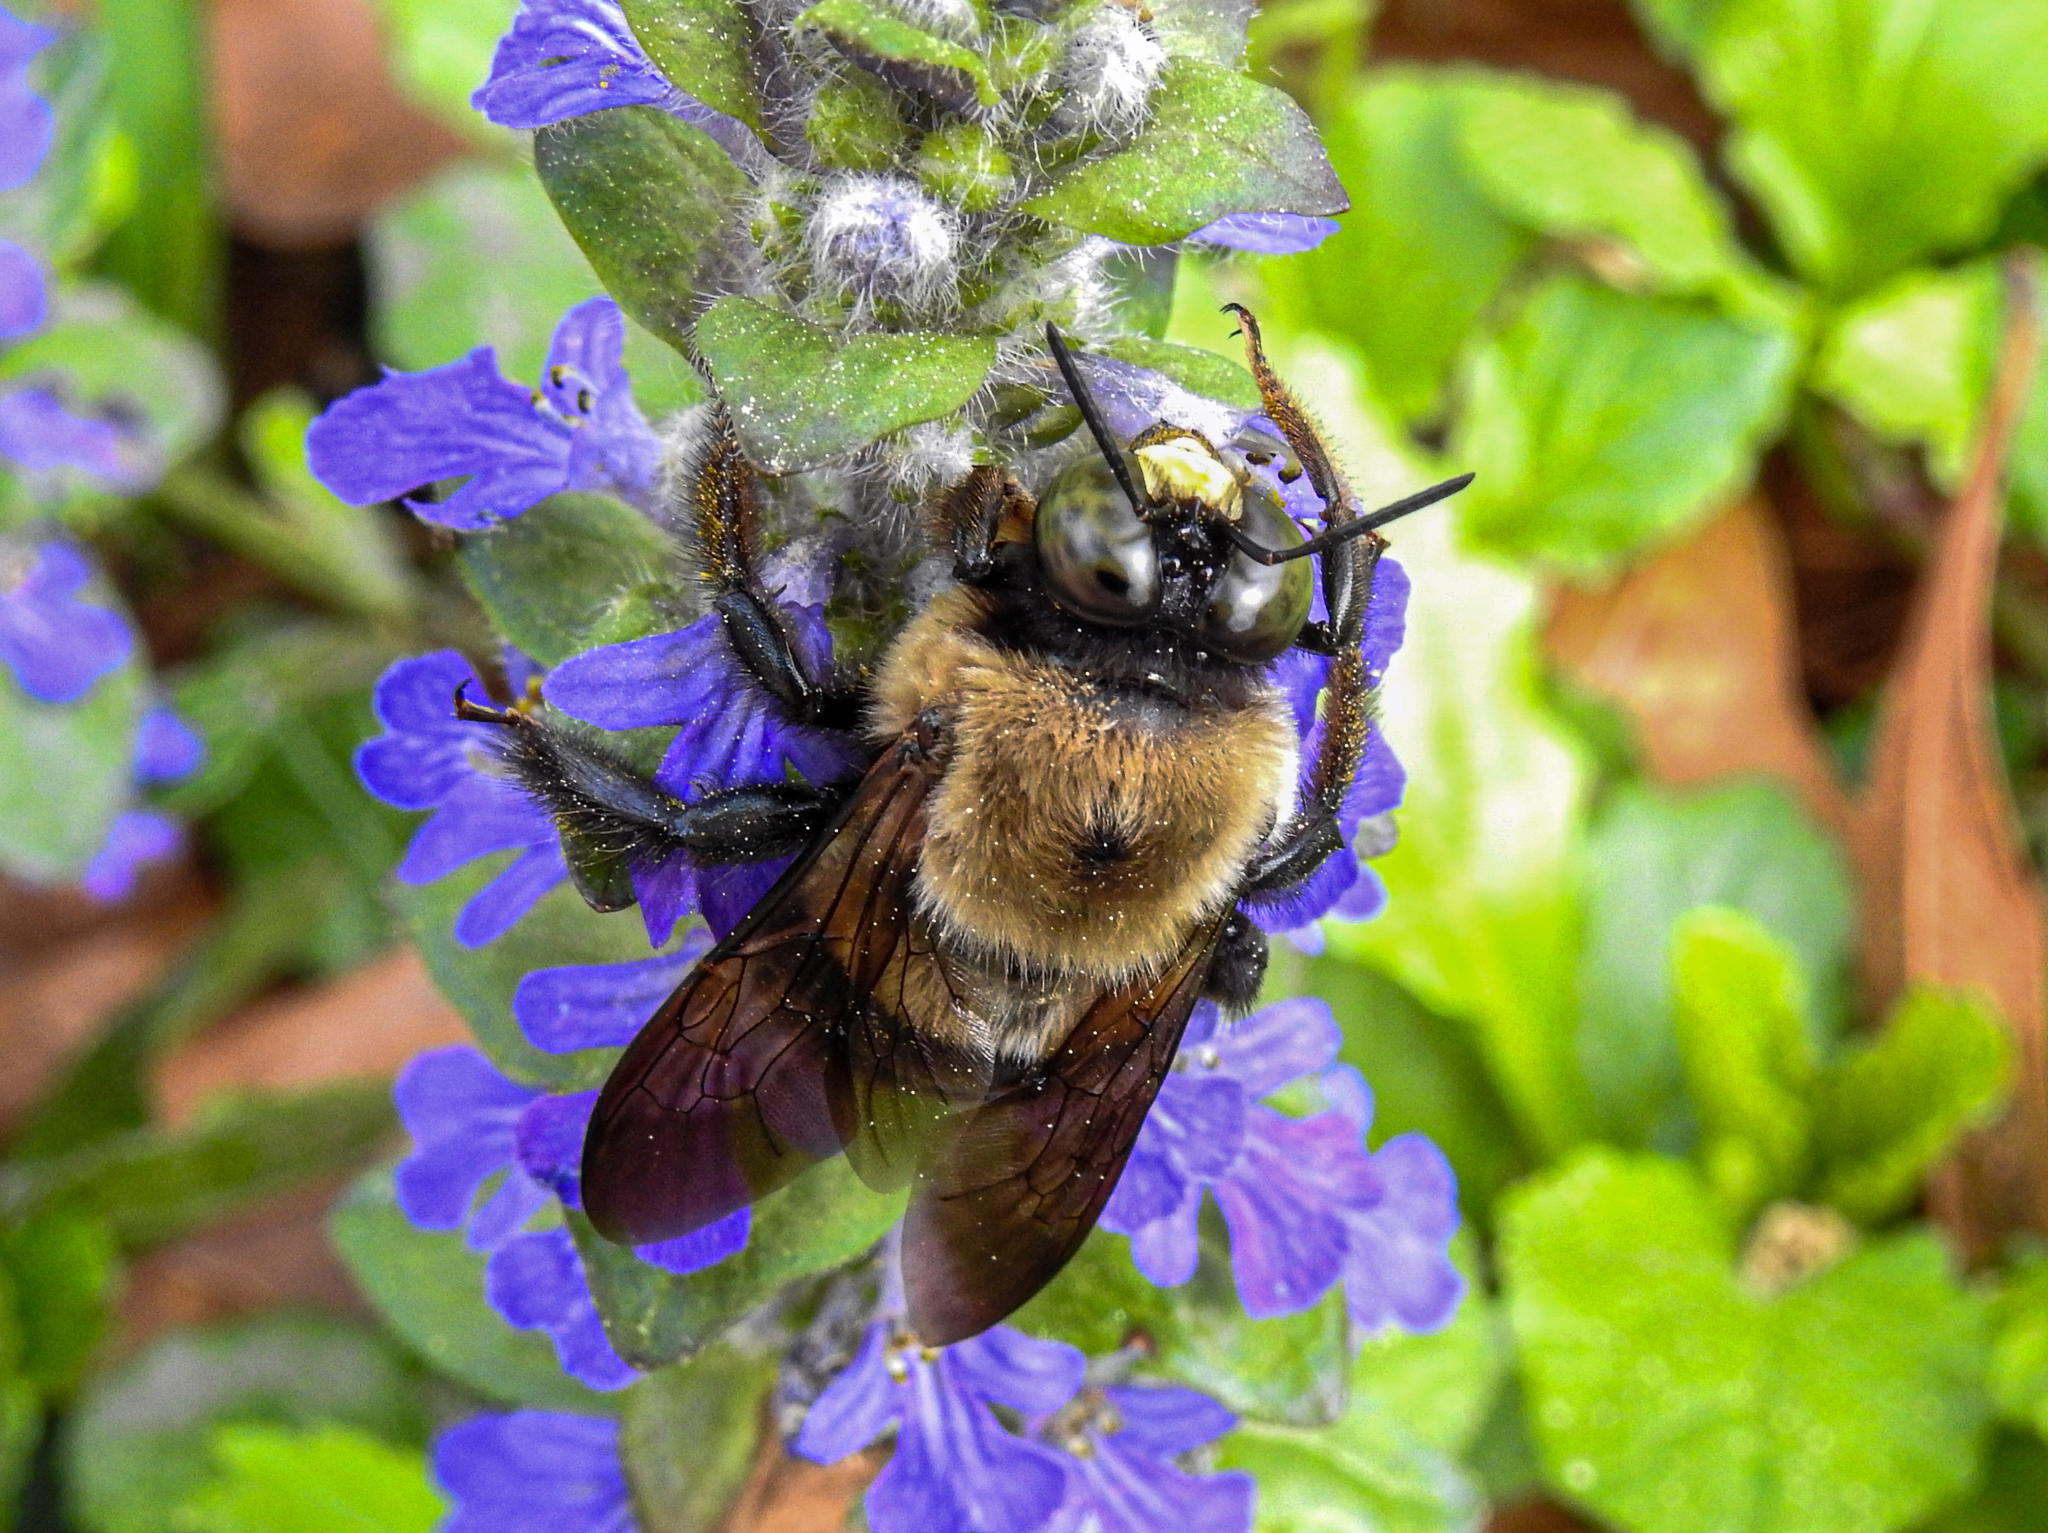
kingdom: Animalia
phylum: Arthropoda
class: Insecta
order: Hymenoptera
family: Apidae
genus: Xylocopa
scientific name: Xylocopa virginica
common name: Carpenter bee
